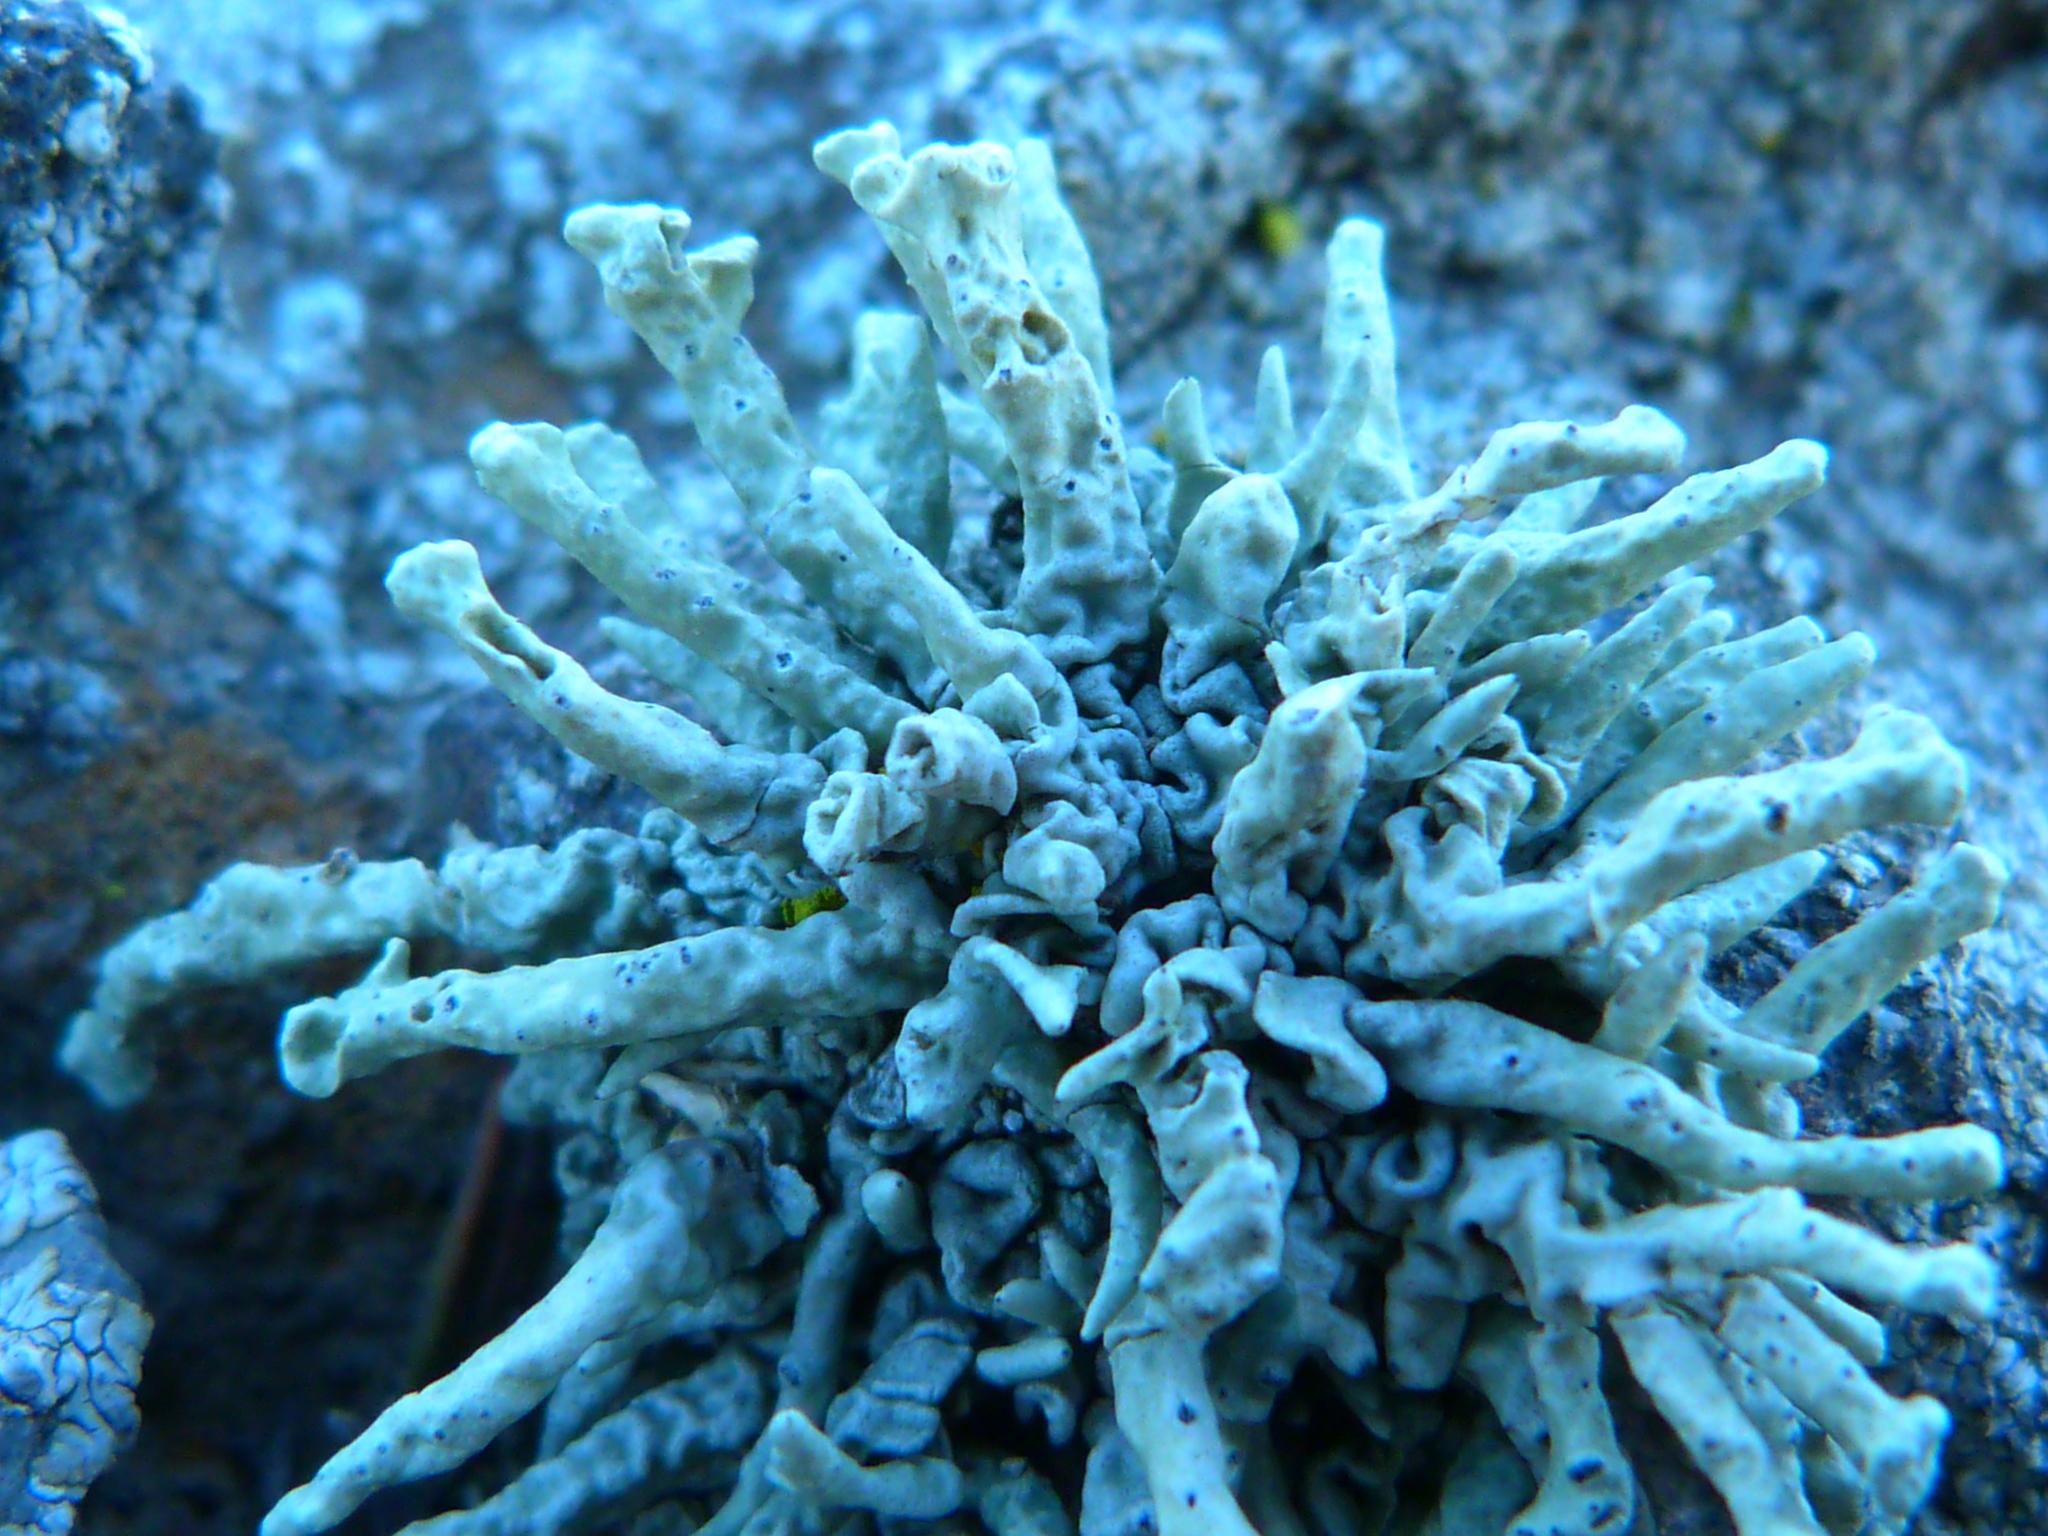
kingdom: Fungi
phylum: Ascomycota
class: Lecanoromycetes
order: Lecanorales
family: Ramalinaceae
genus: Niebla
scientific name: Niebla combeoides
